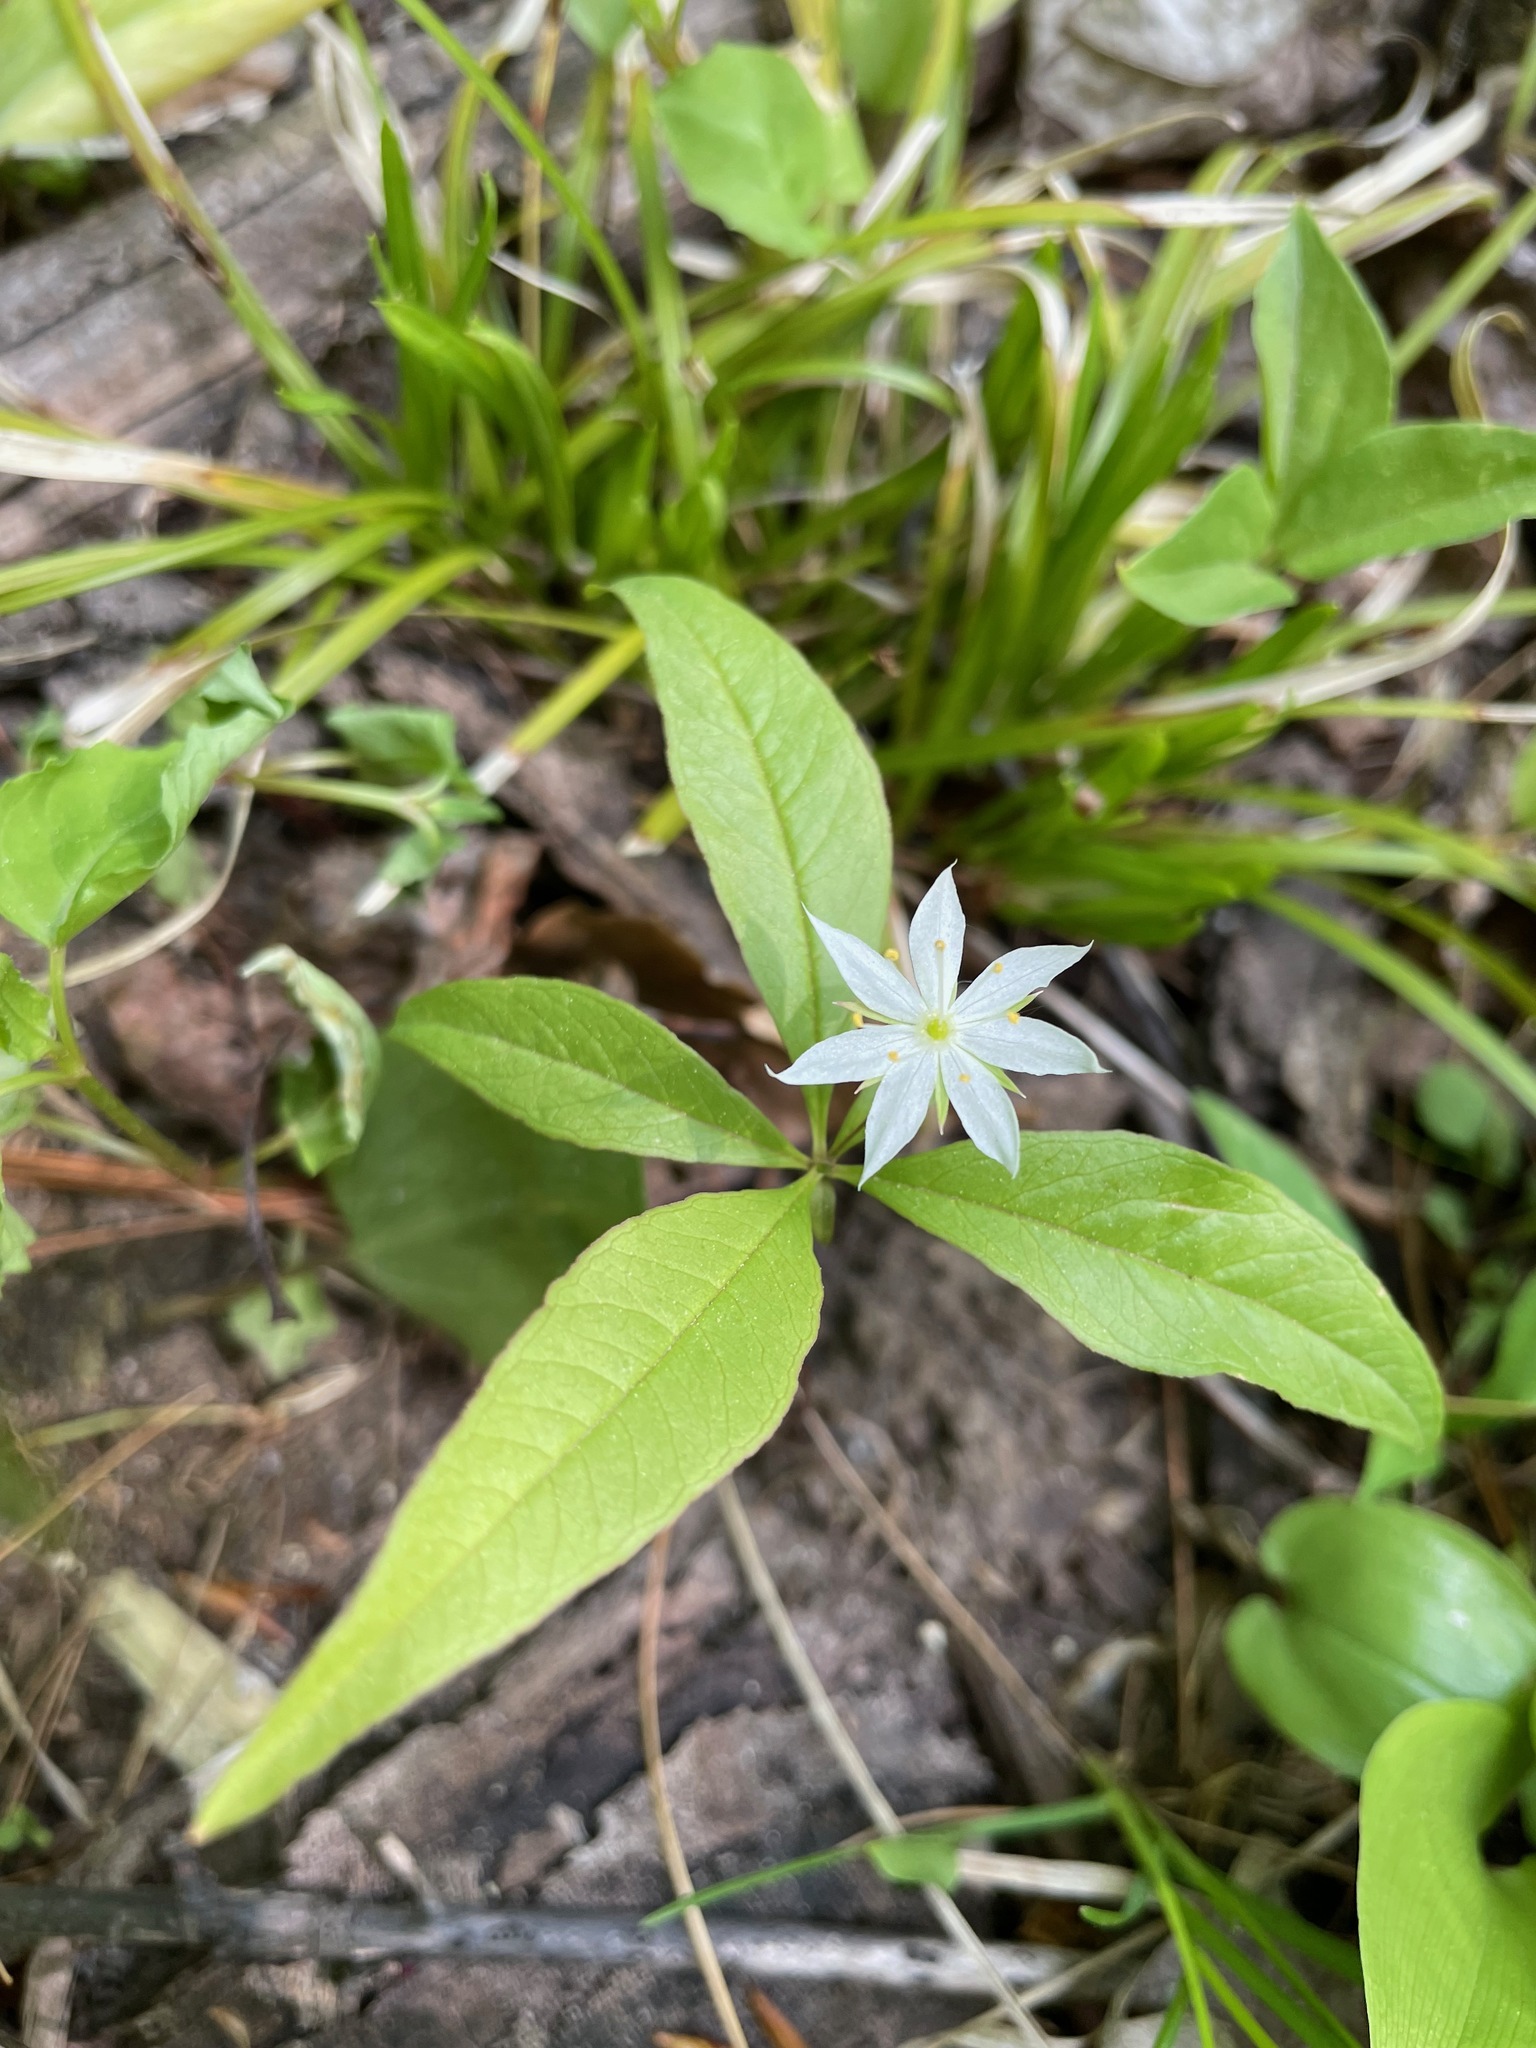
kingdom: Plantae
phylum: Tracheophyta
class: Magnoliopsida
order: Ericales
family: Primulaceae
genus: Lysimachia
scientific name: Lysimachia borealis
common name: American starflower
